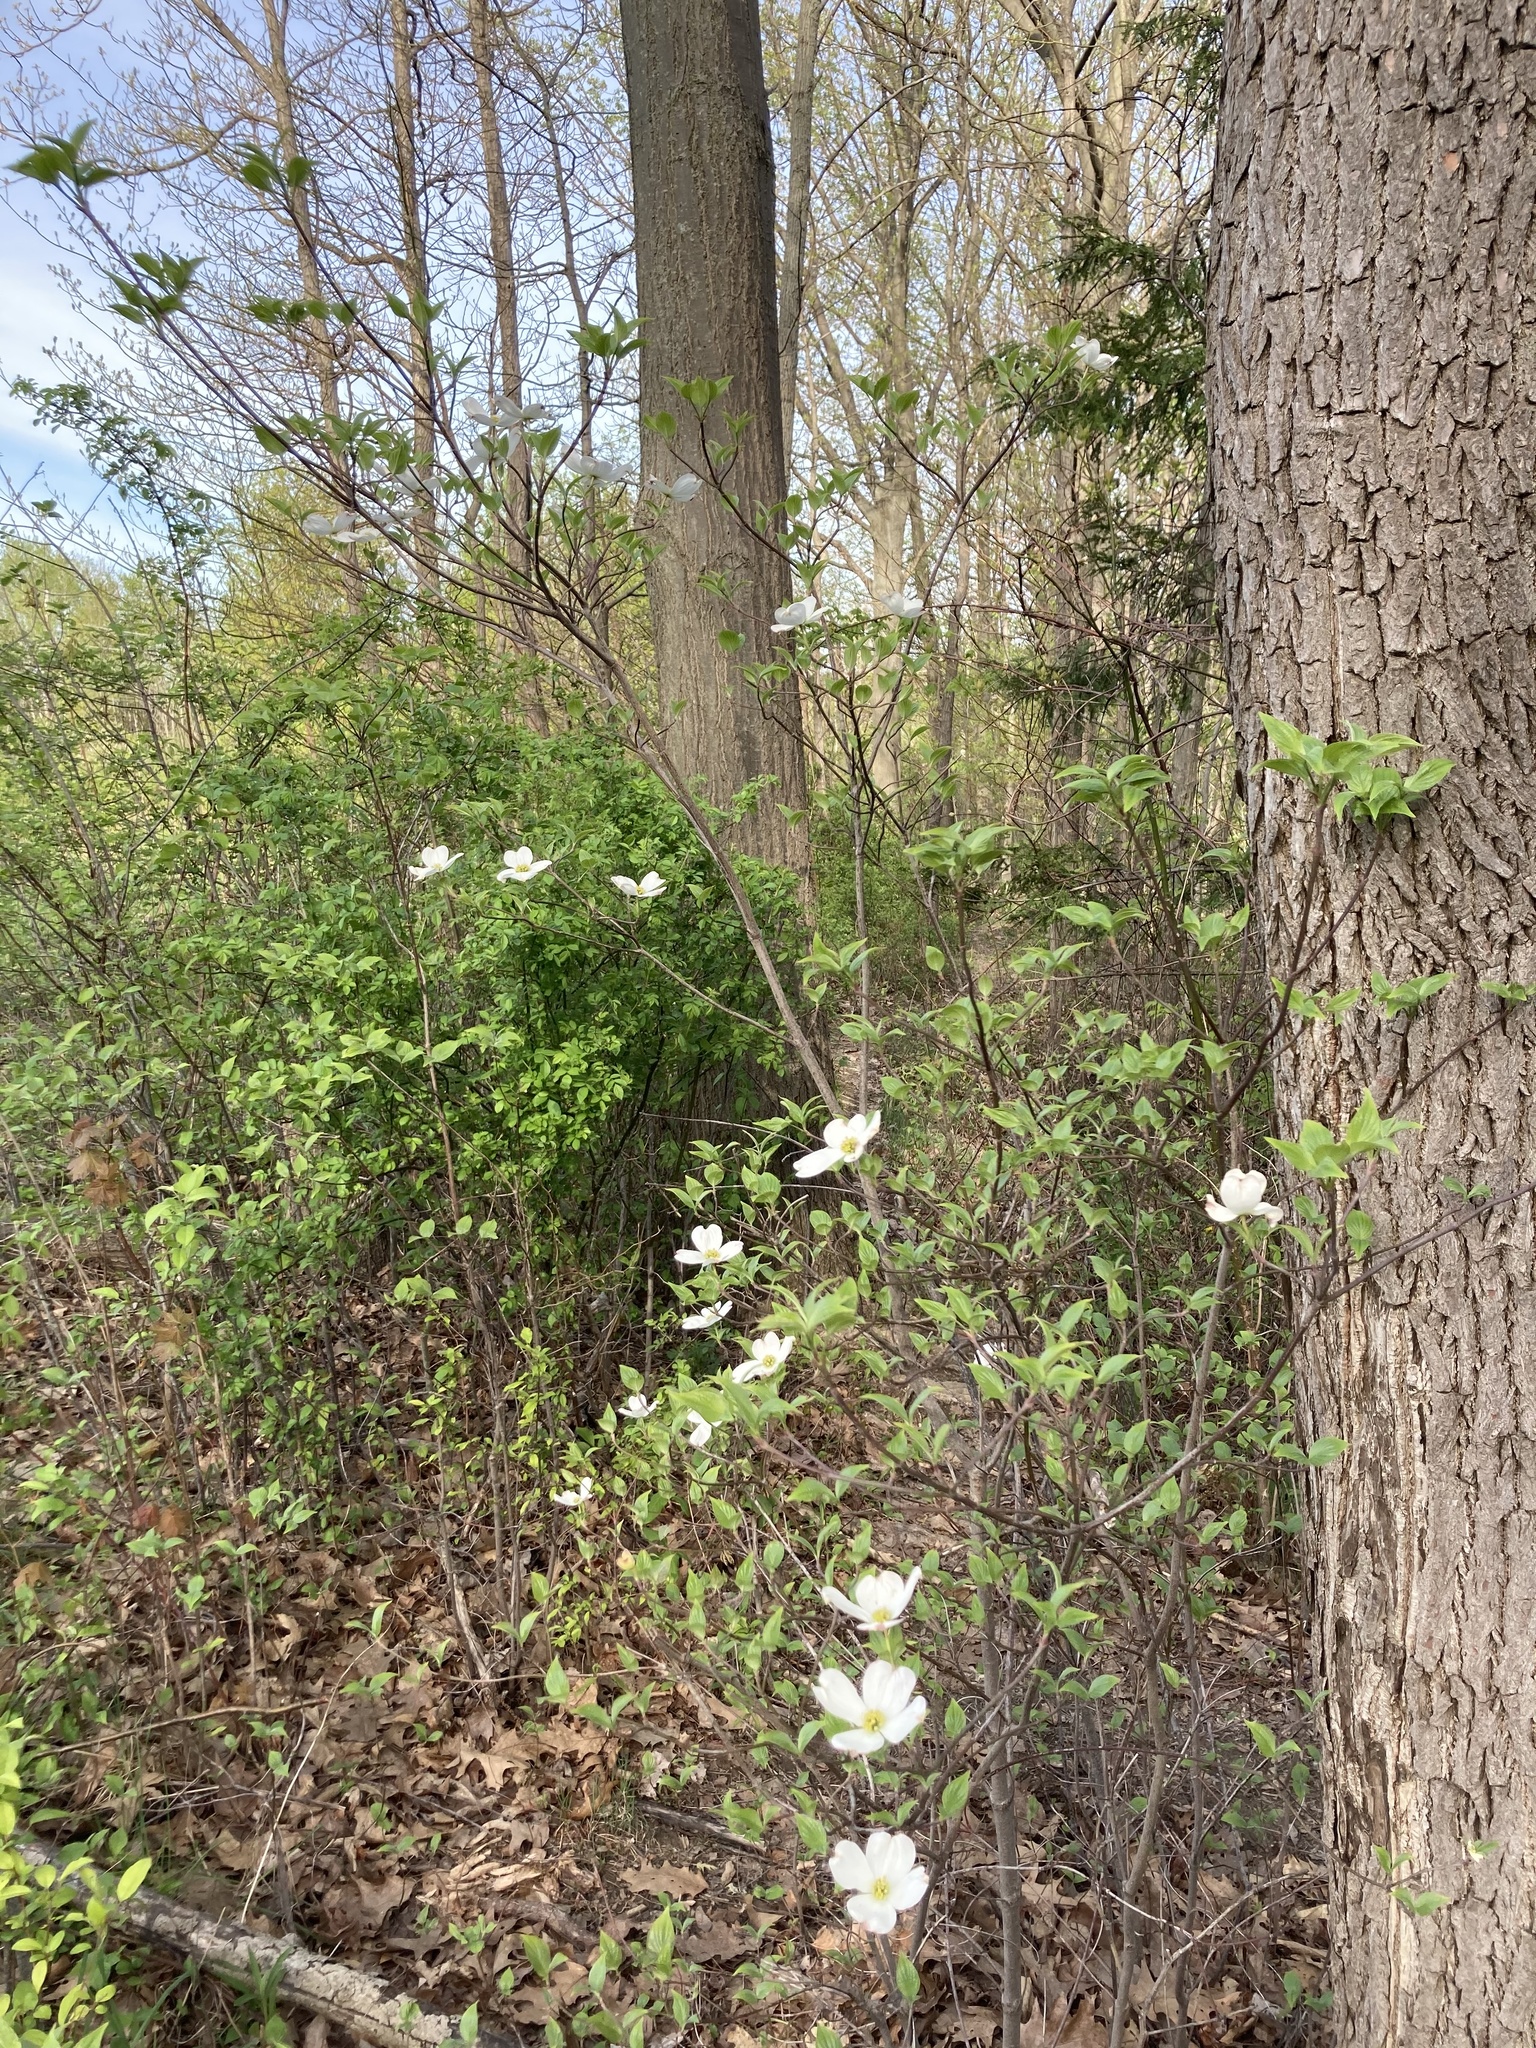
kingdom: Plantae
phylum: Tracheophyta
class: Magnoliopsida
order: Cornales
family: Cornaceae
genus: Cornus
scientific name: Cornus florida
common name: Flowering dogwood
